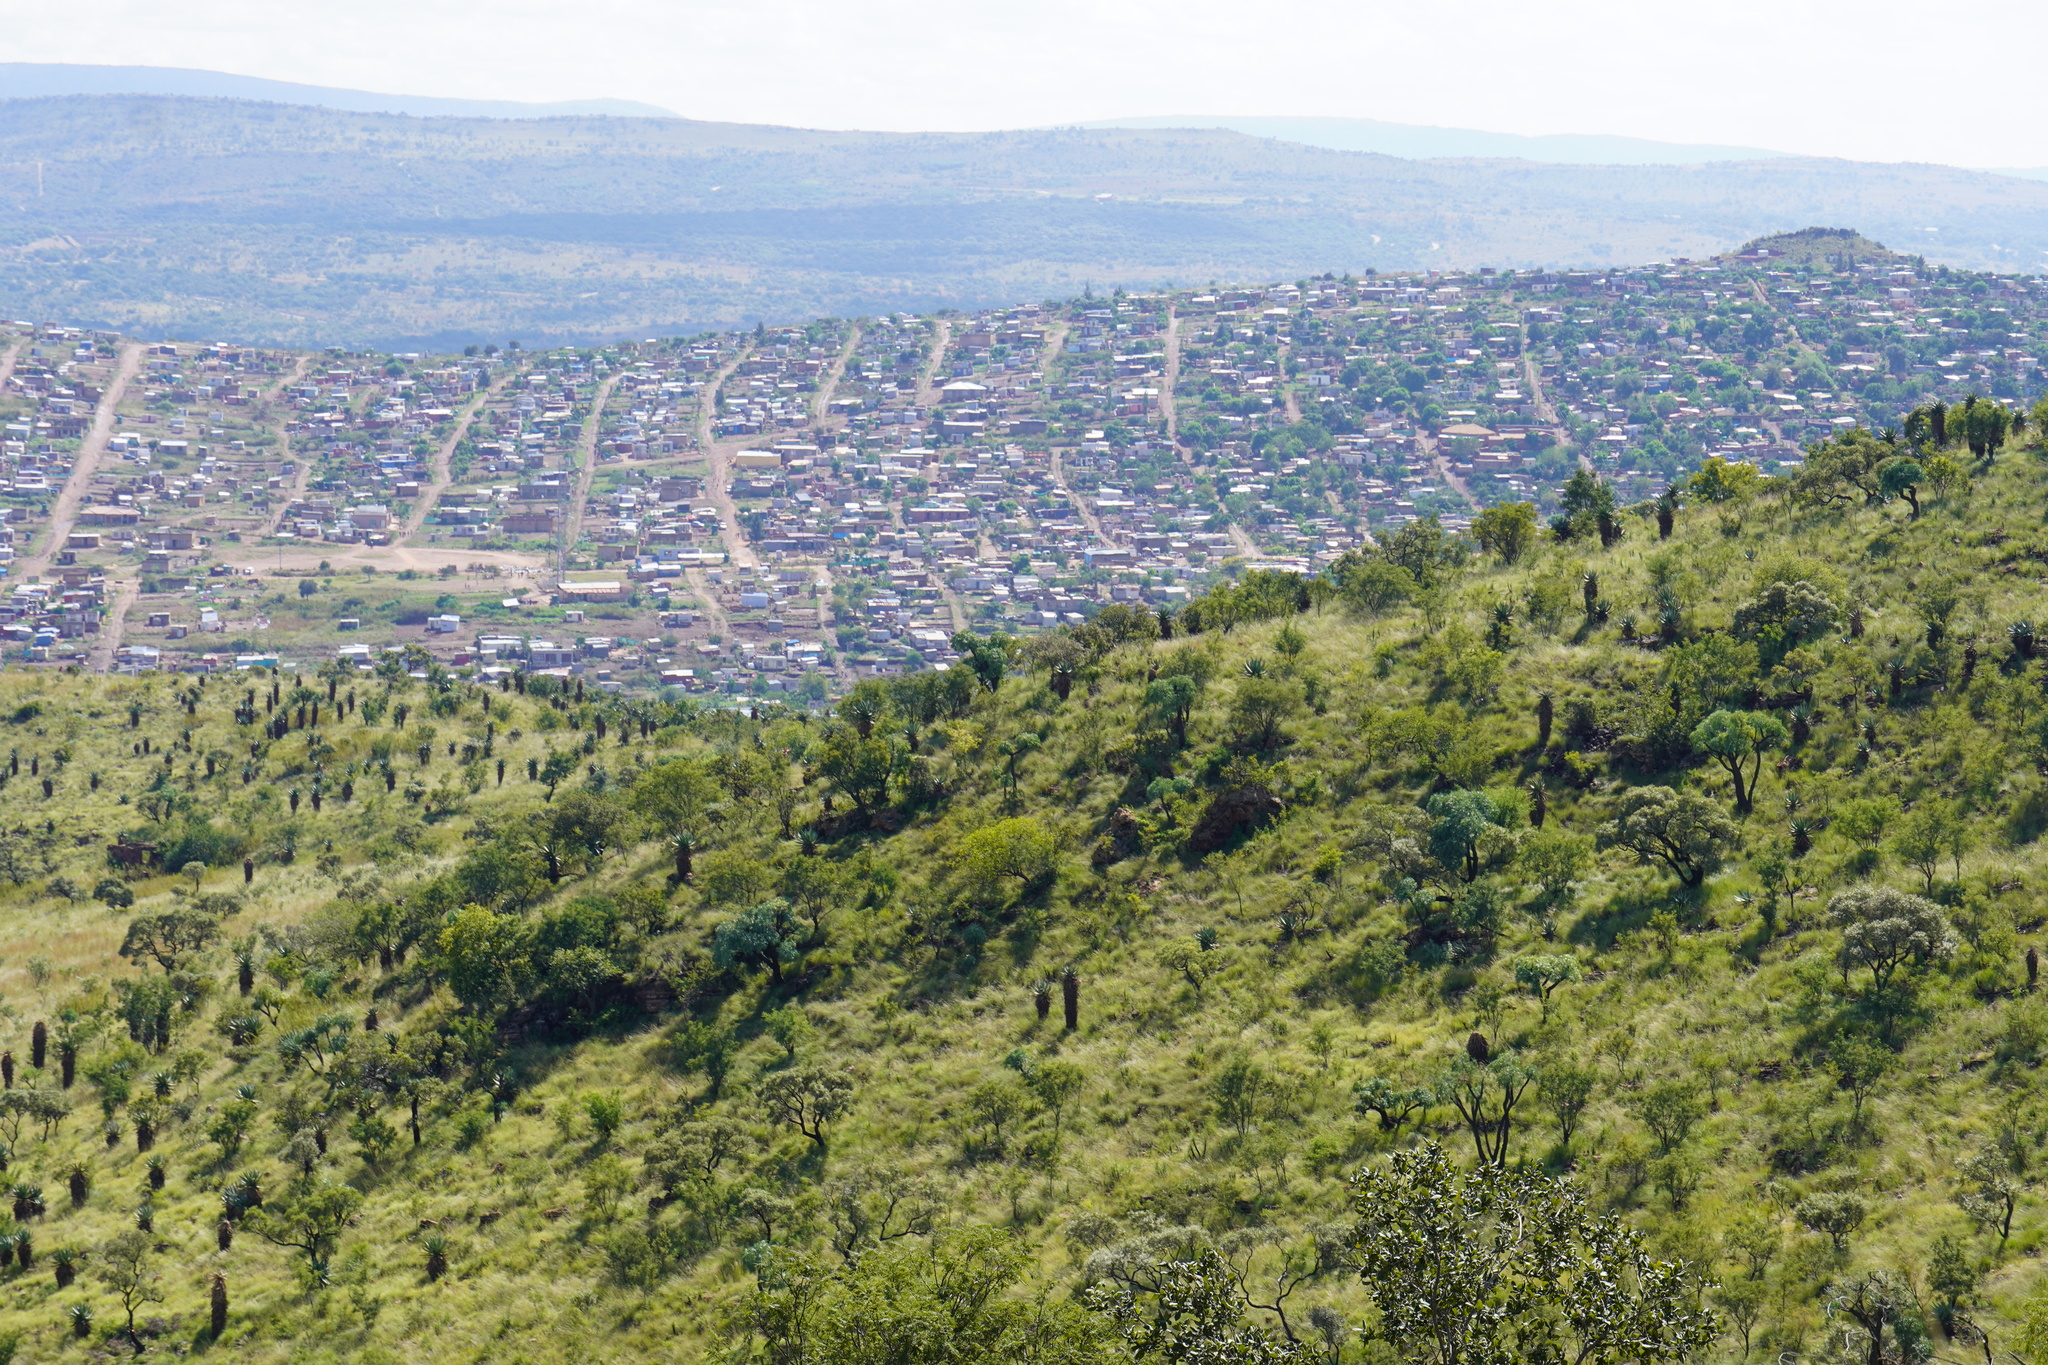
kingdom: Plantae
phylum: Tracheophyta
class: Liliopsida
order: Asparagales
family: Asphodelaceae
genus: Aloe
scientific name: Aloe marlothii
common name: Flat-flowered aloe
